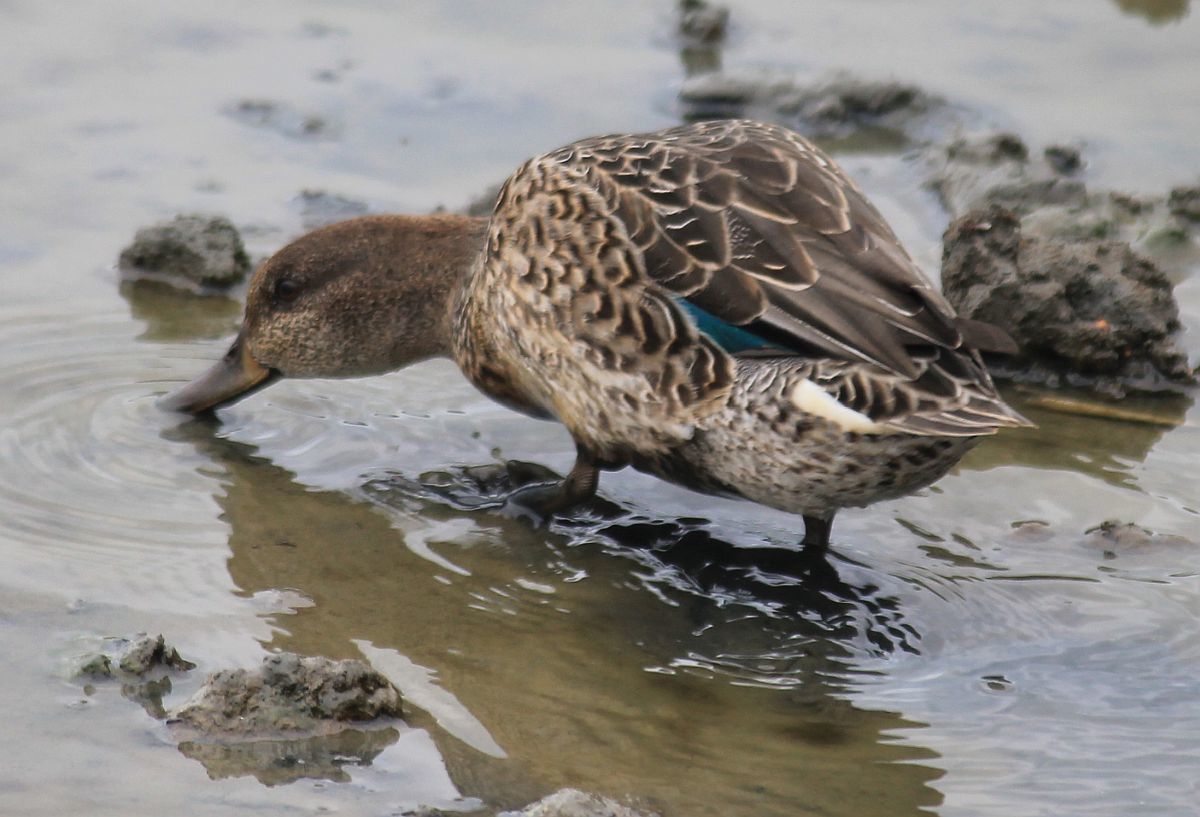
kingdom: Animalia
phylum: Chordata
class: Aves
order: Anseriformes
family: Anatidae
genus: Anas
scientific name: Anas crecca
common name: Eurasian teal
